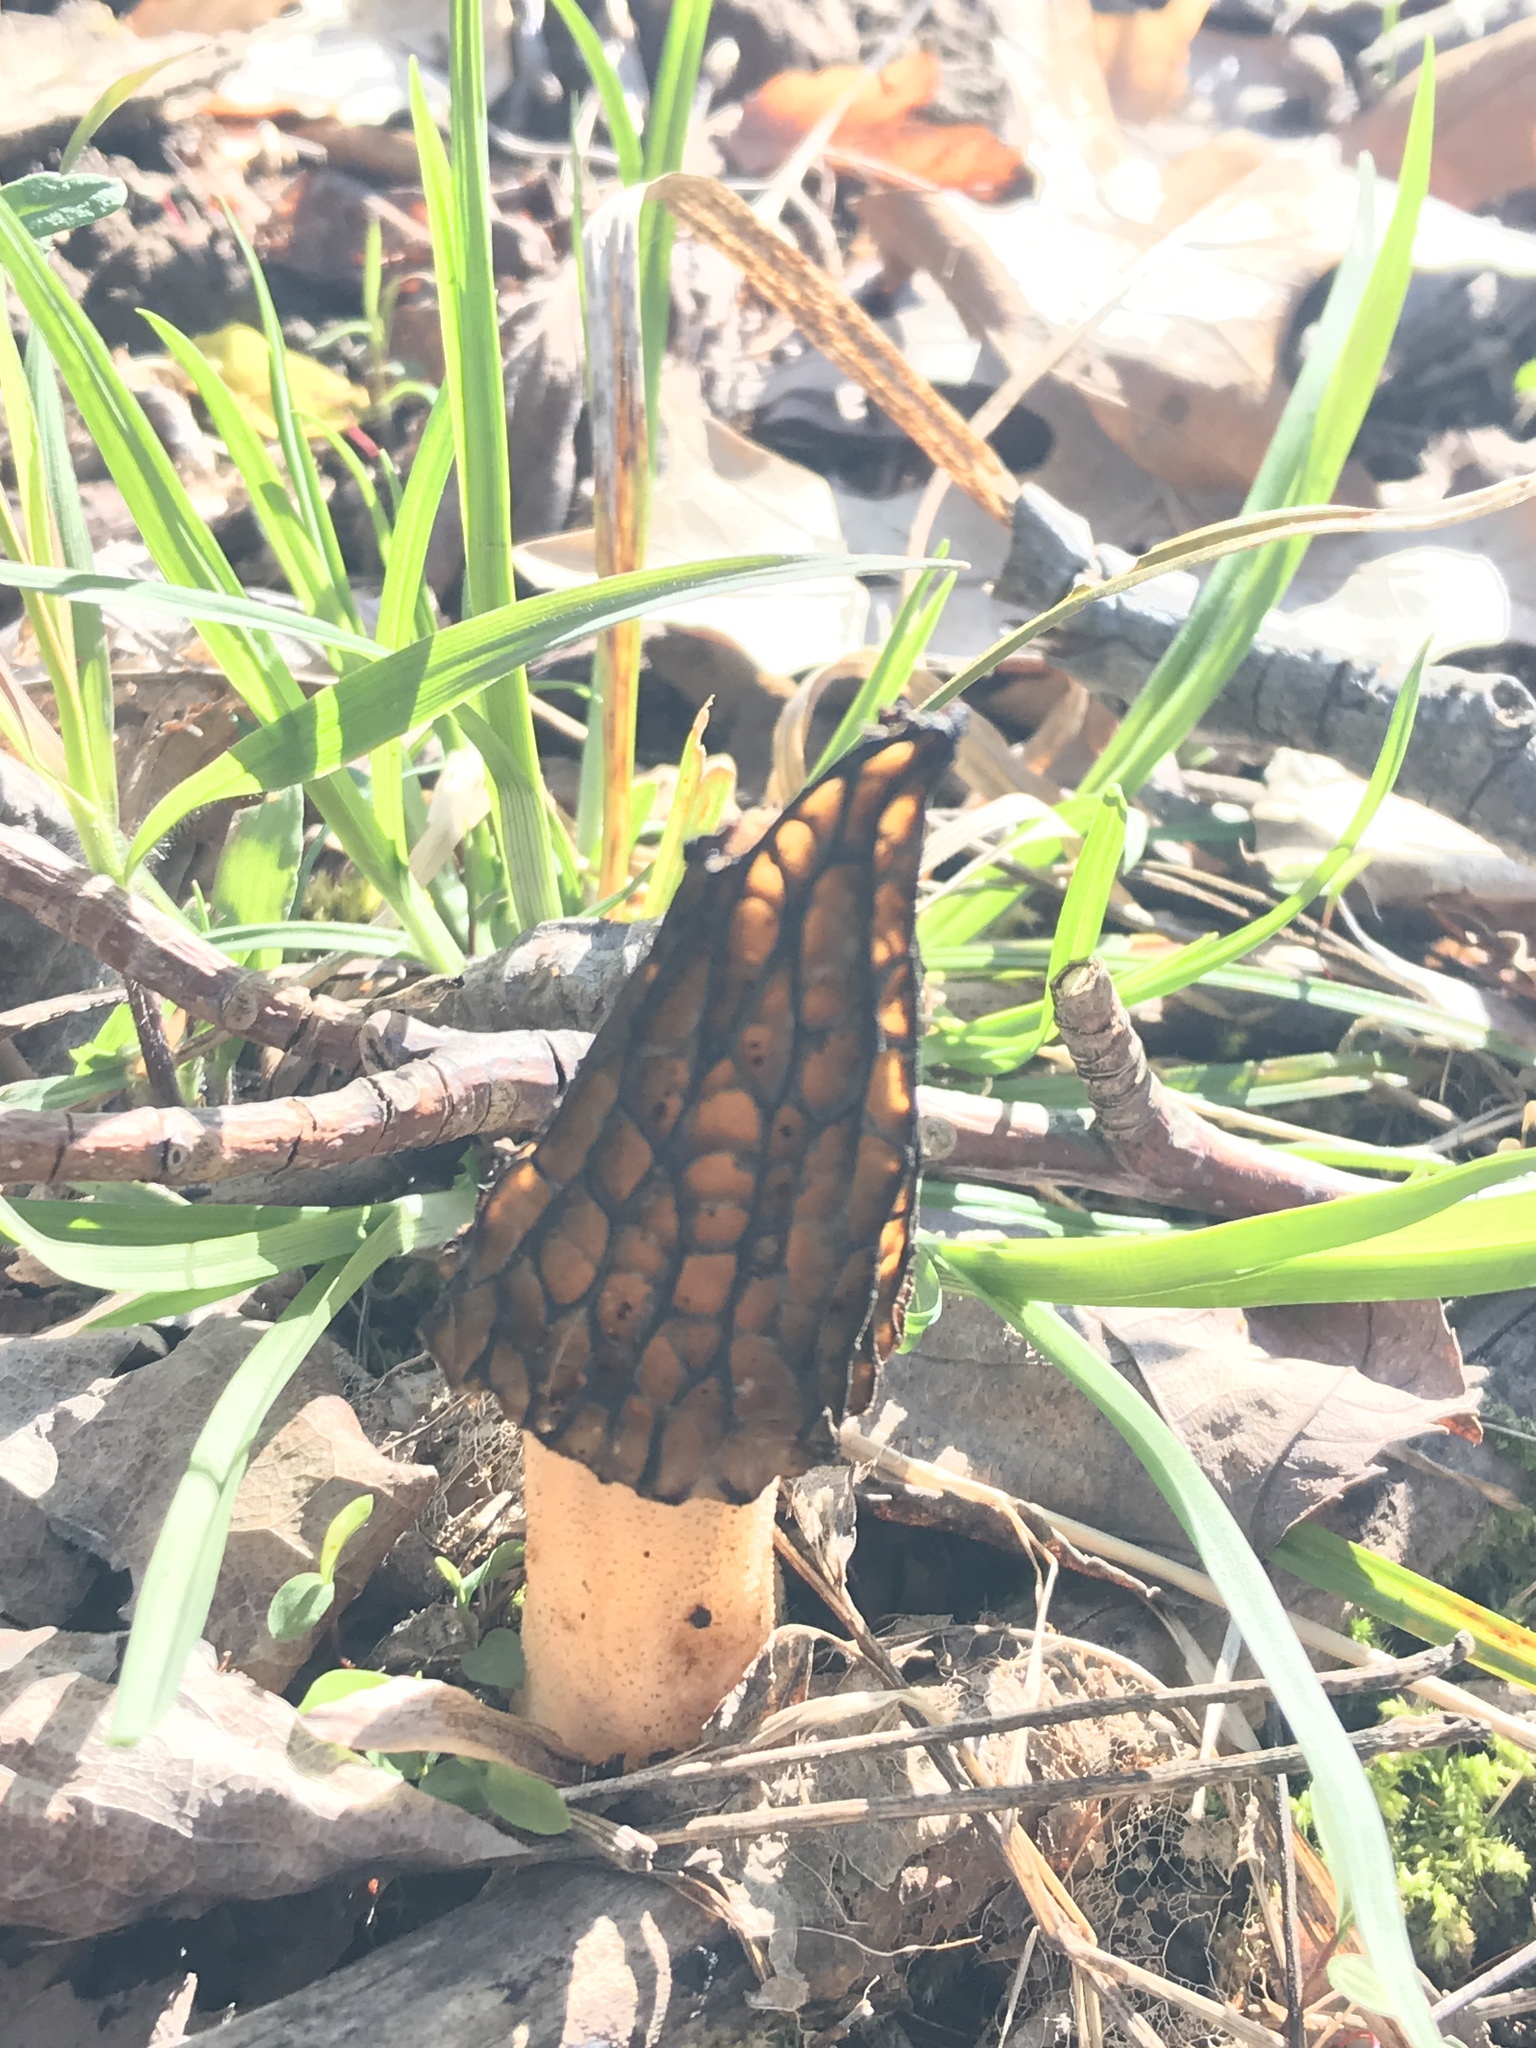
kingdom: Fungi
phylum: Ascomycota
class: Pezizomycetes
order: Pezizales
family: Morchellaceae
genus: Morchella
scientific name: Morchella angusticeps
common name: Black morel
